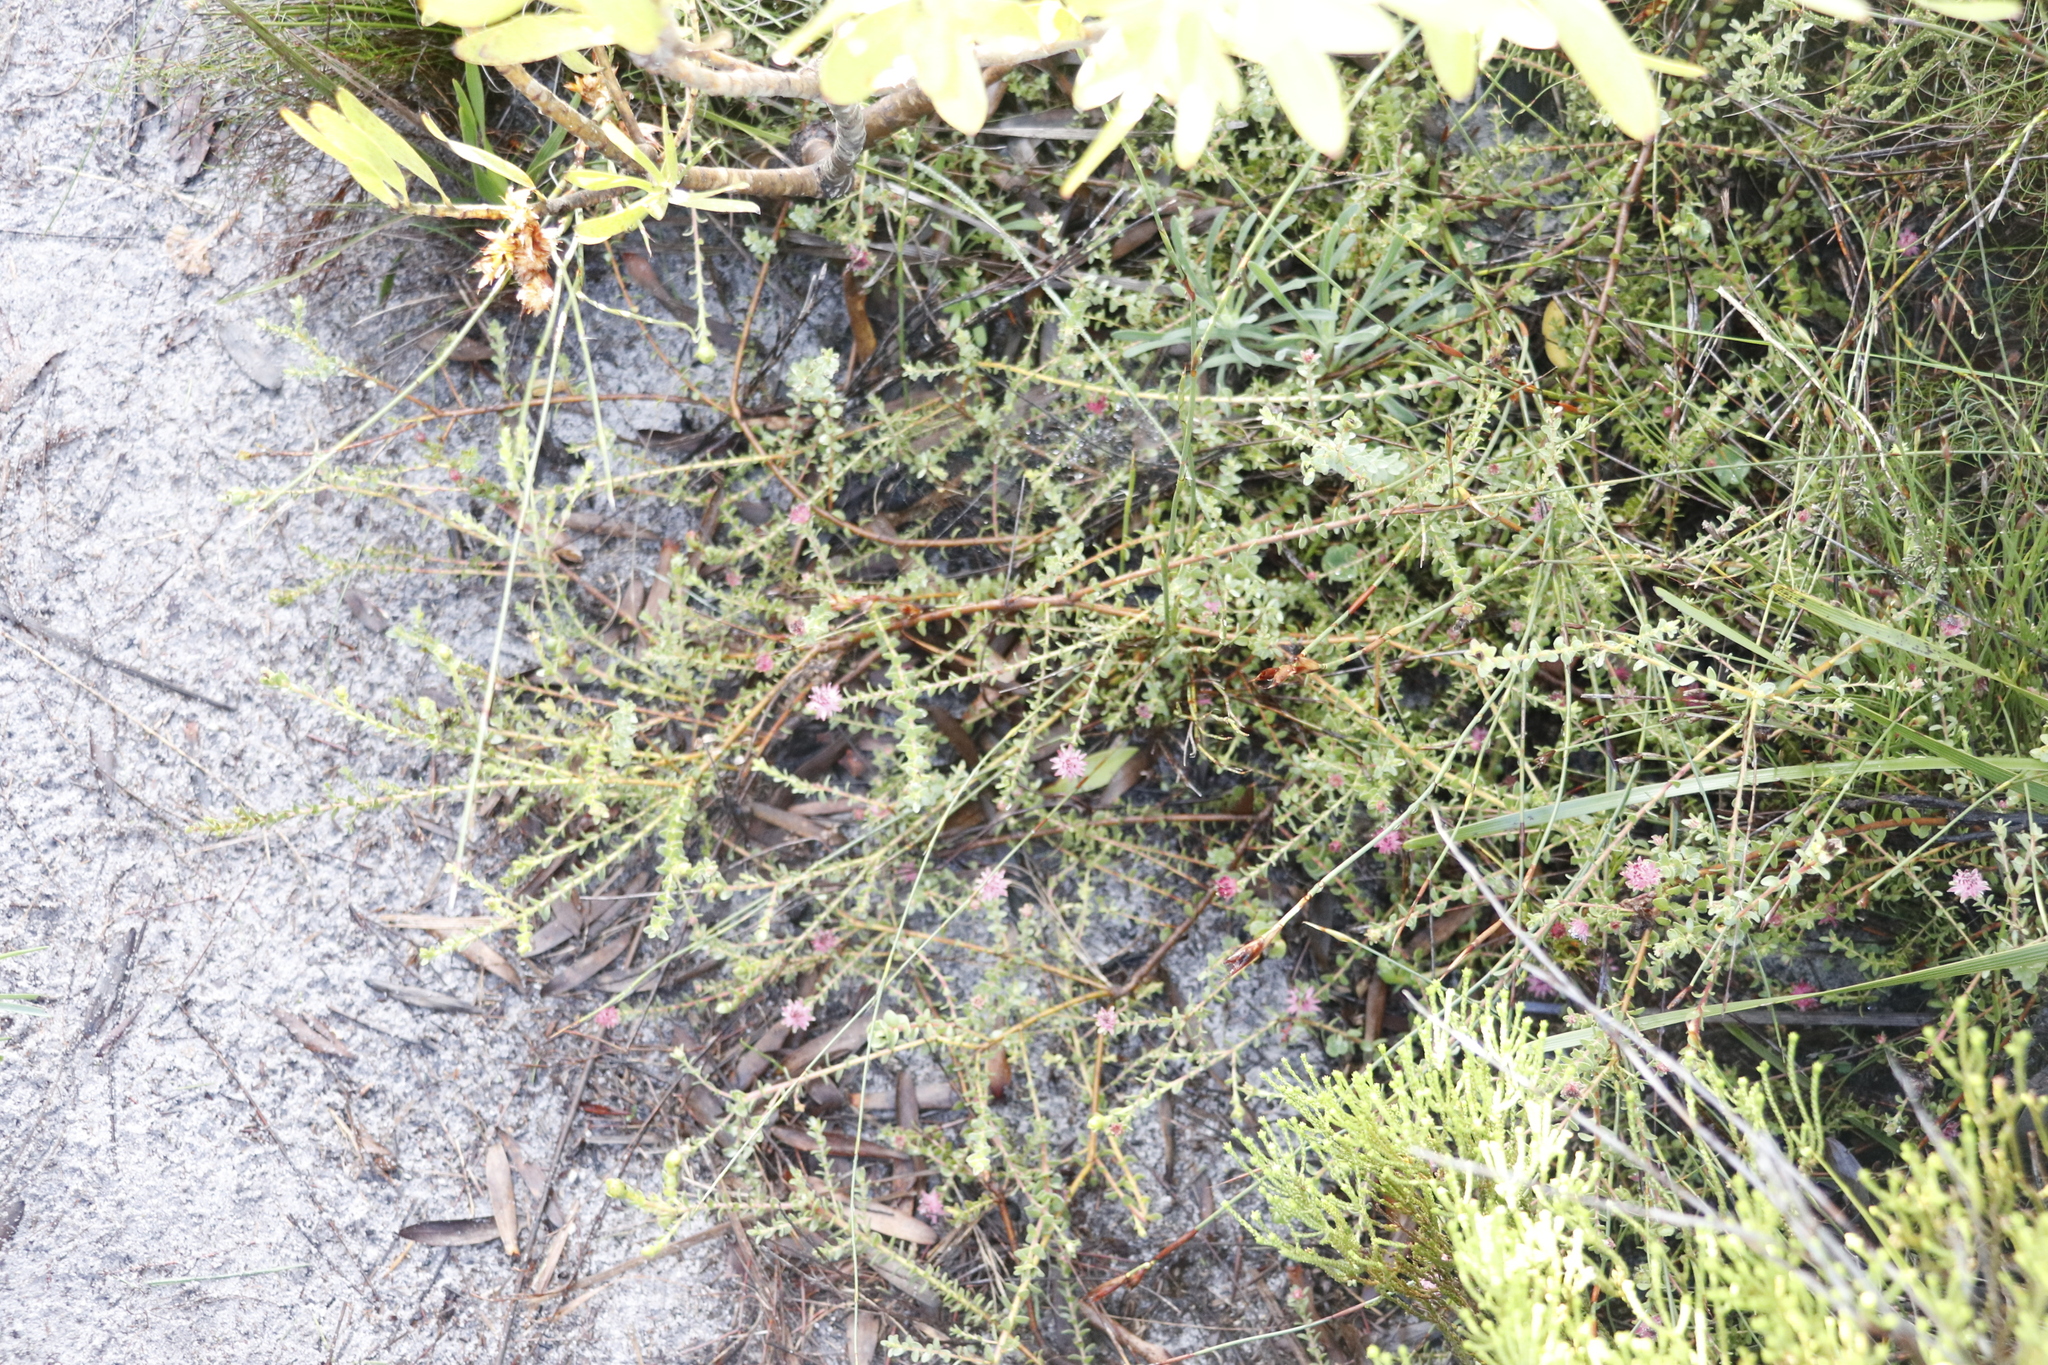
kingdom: Plantae
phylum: Tracheophyta
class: Magnoliopsida
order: Proteales
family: Proteaceae
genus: Diastella
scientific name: Diastella divaricata
